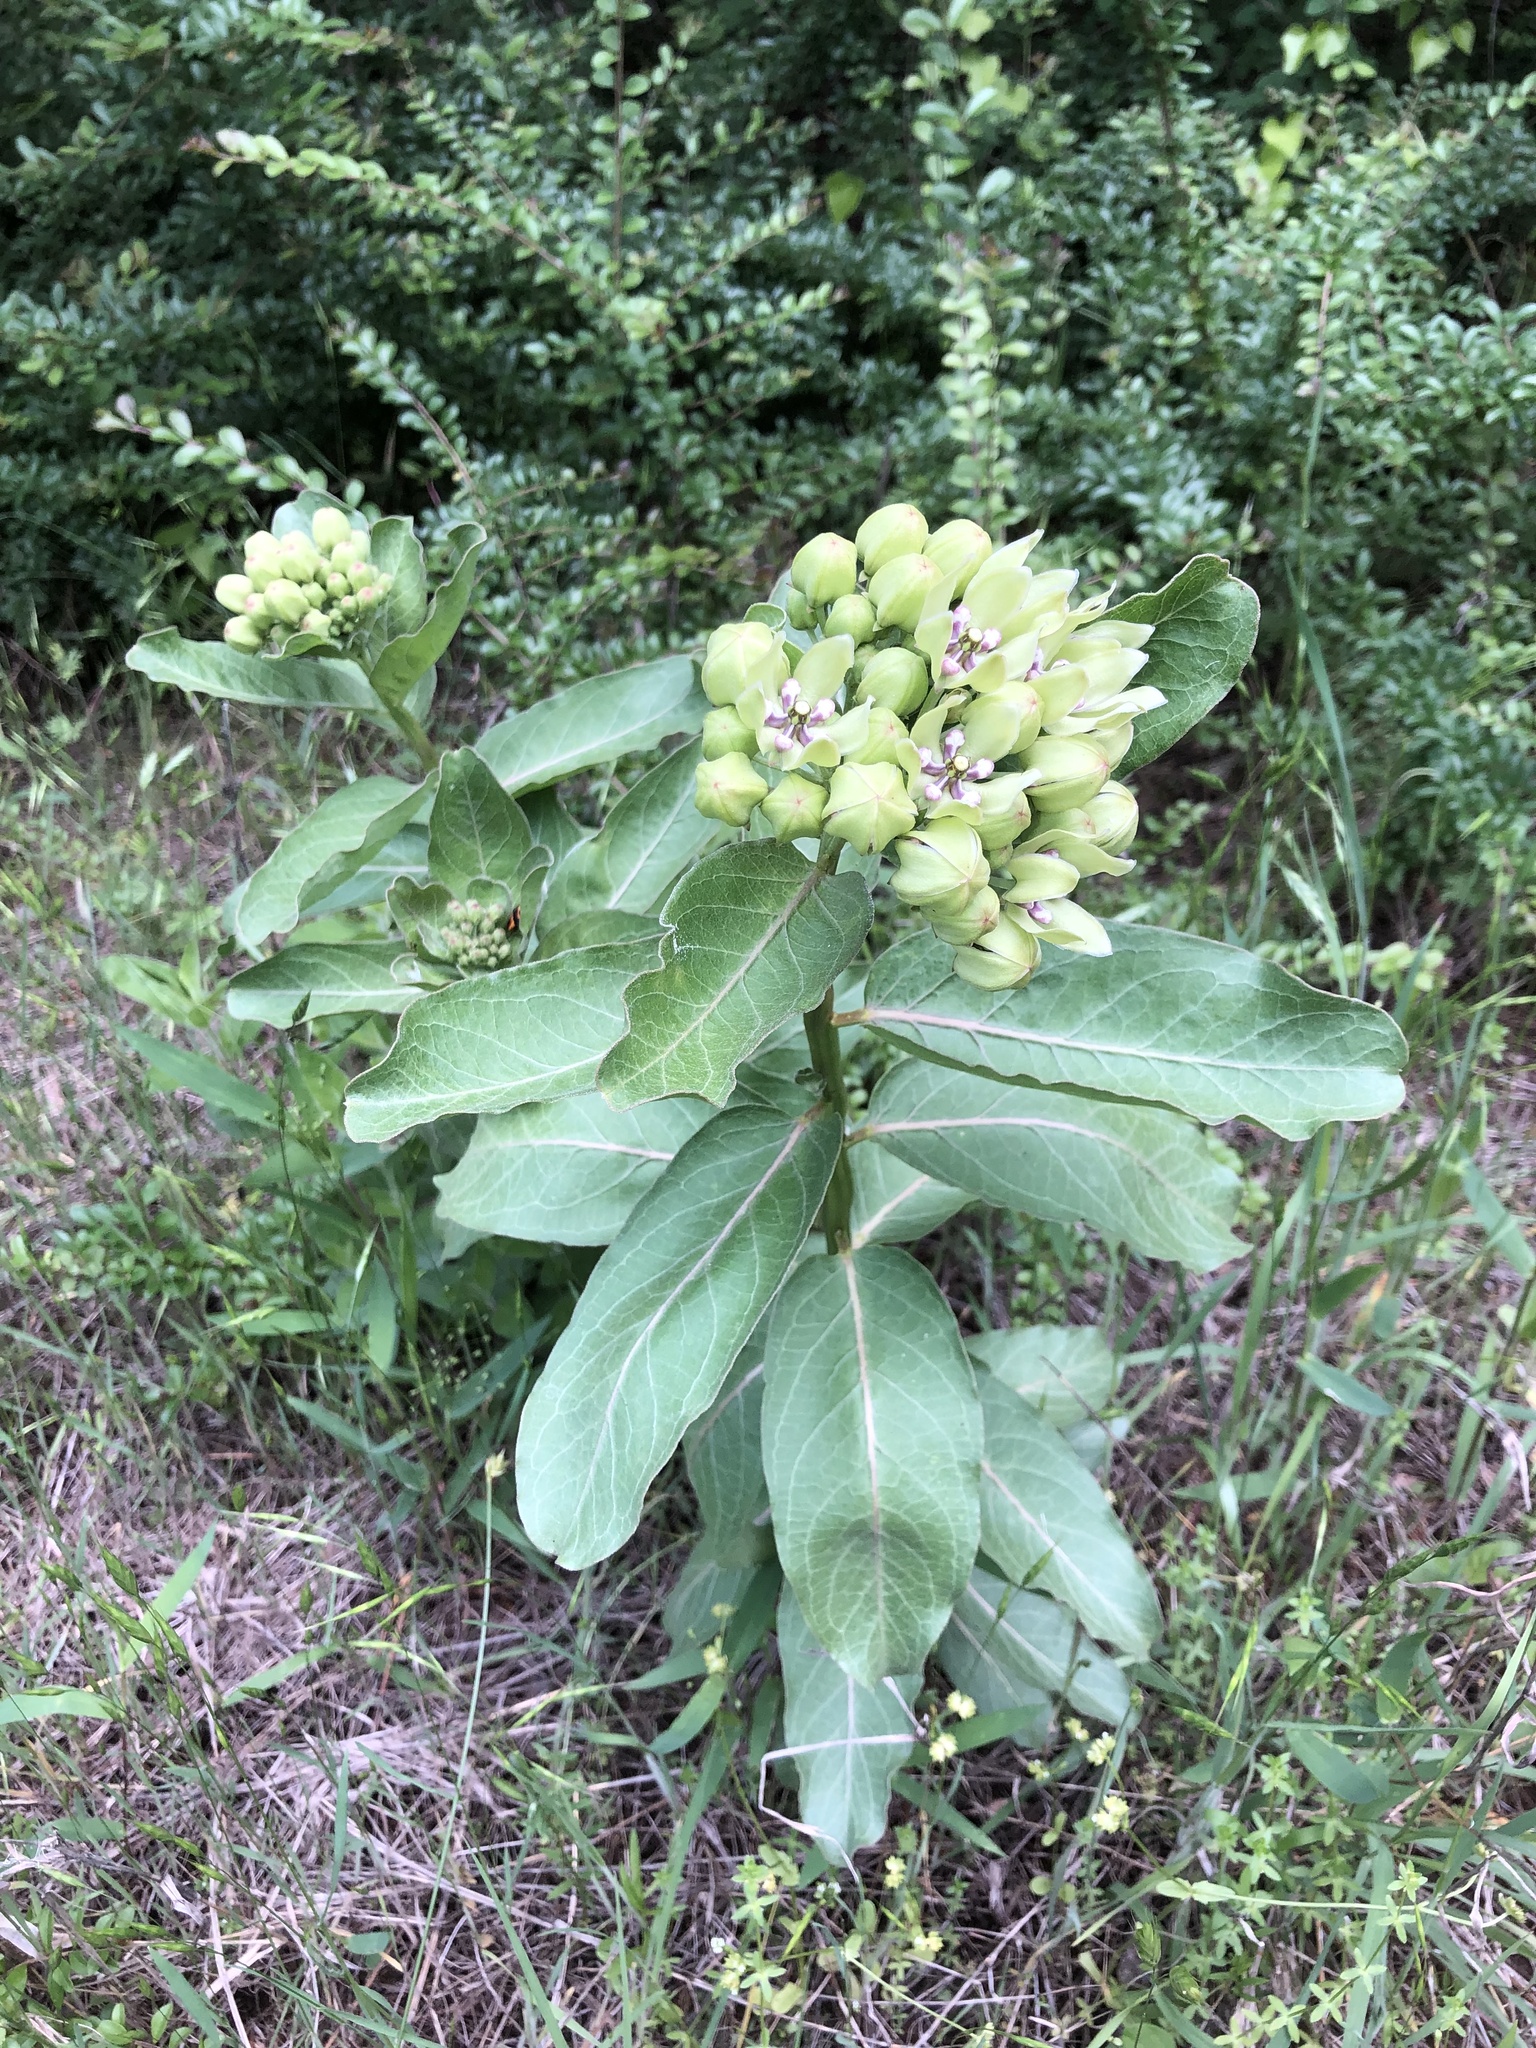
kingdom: Plantae
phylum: Tracheophyta
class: Magnoliopsida
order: Gentianales
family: Apocynaceae
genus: Asclepias
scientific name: Asclepias viridis
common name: Antelope-horns
